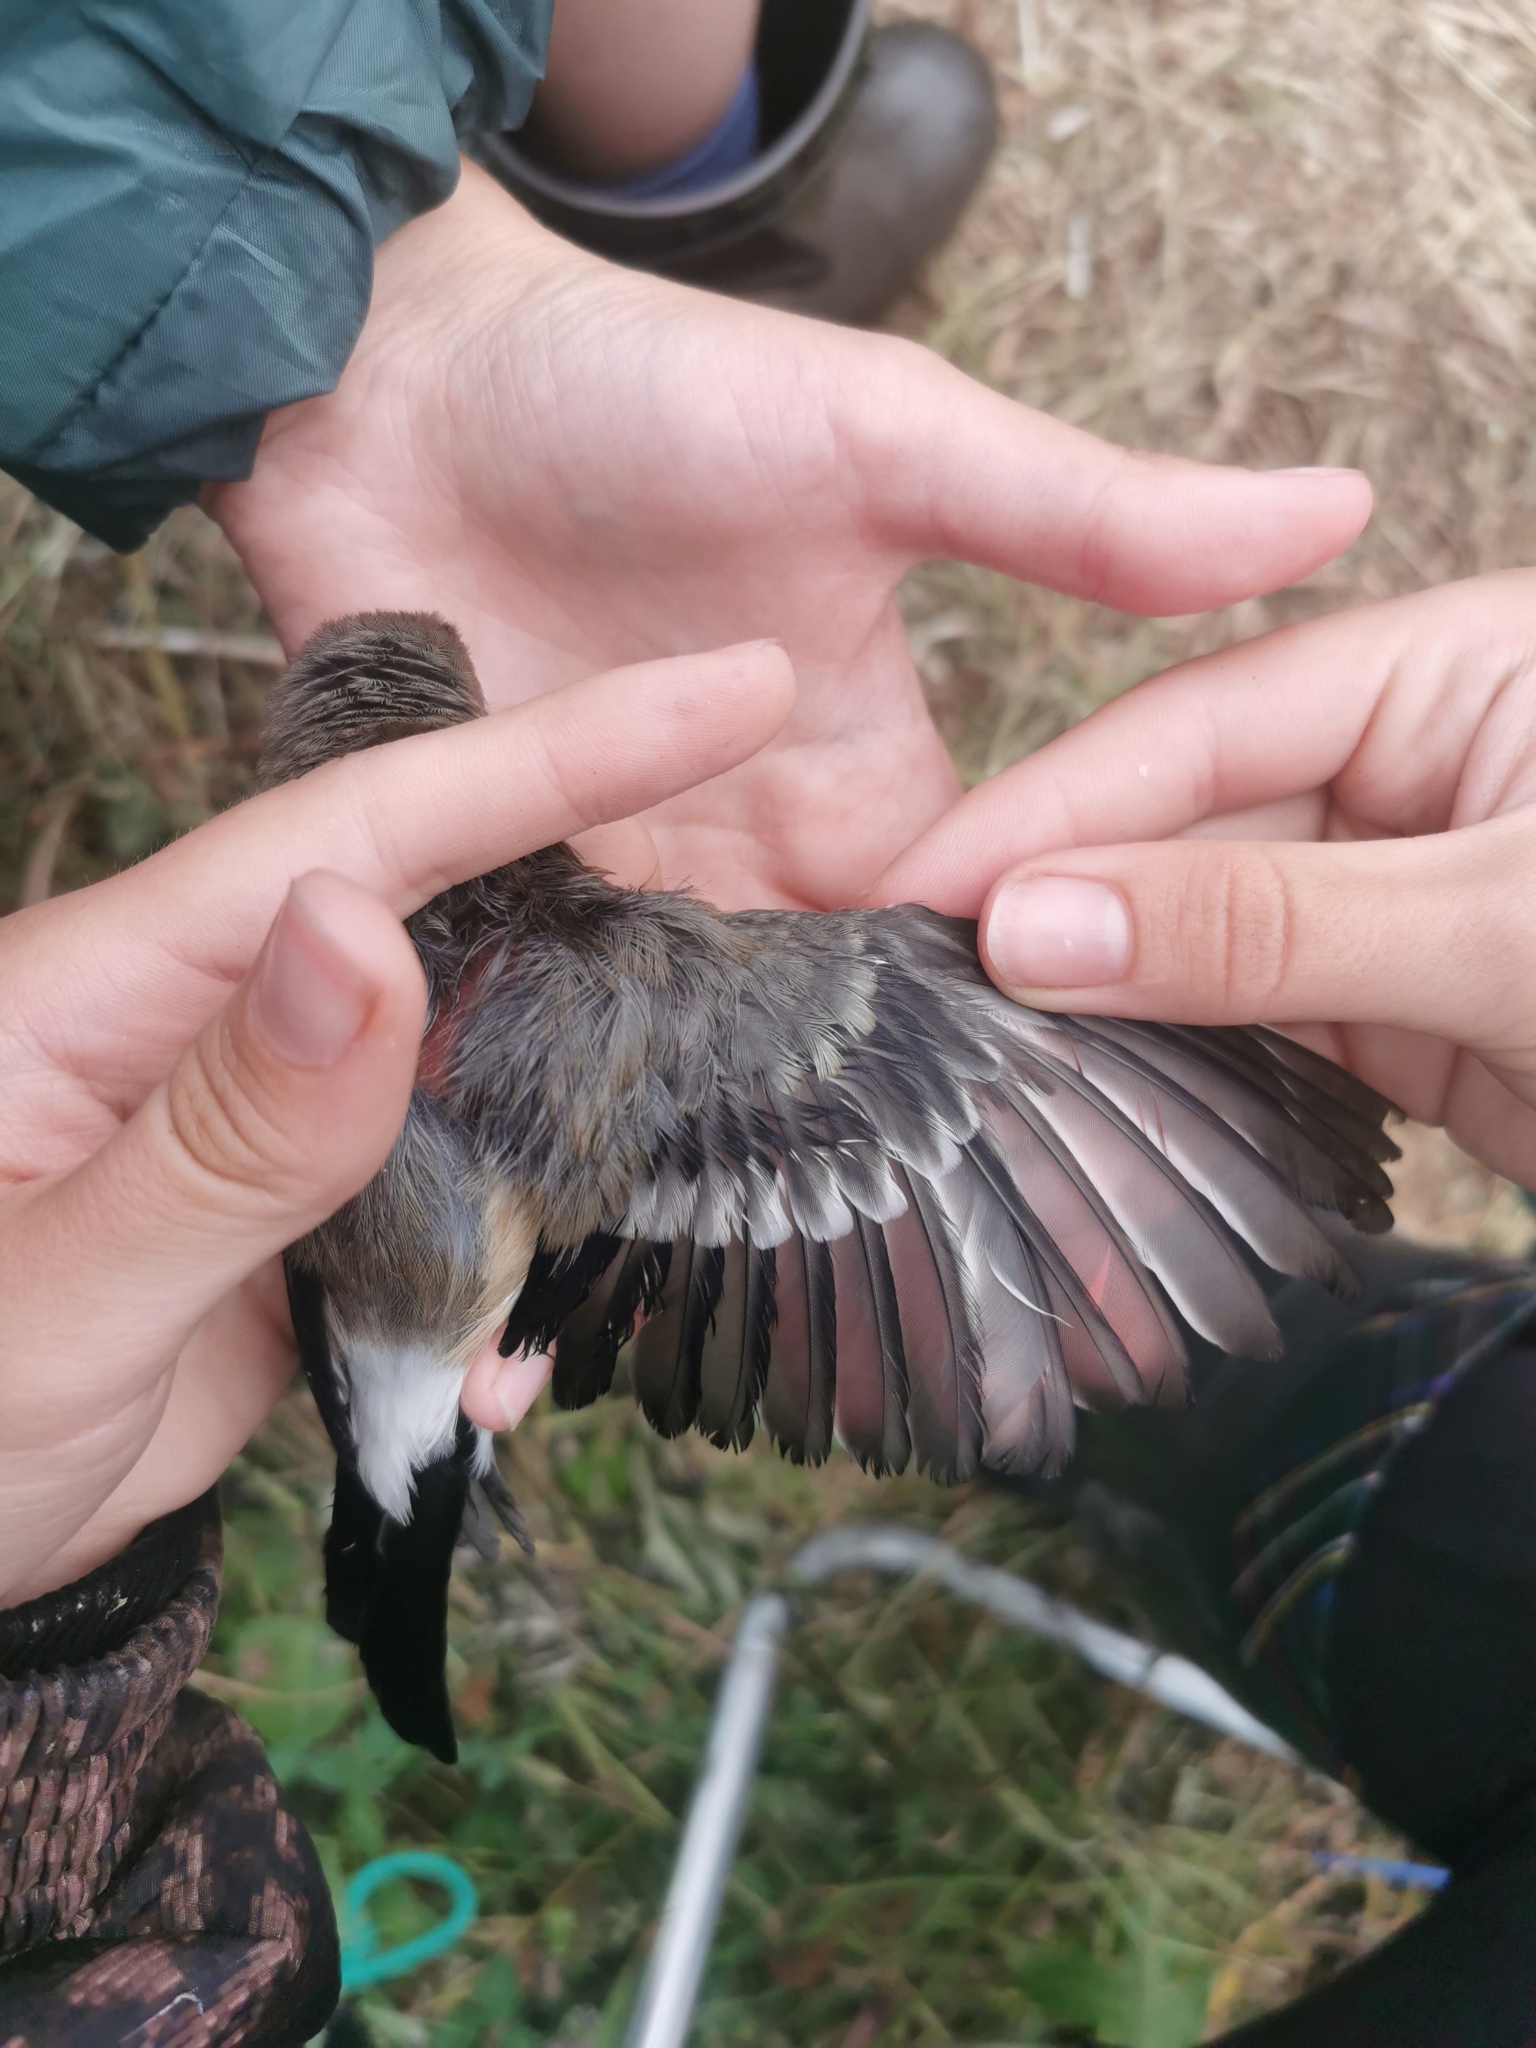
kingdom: Animalia
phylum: Chordata
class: Aves
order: Passeriformes
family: Fringillidae
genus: Pyrrhula
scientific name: Pyrrhula pyrrhula
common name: Eurasian bullfinch
